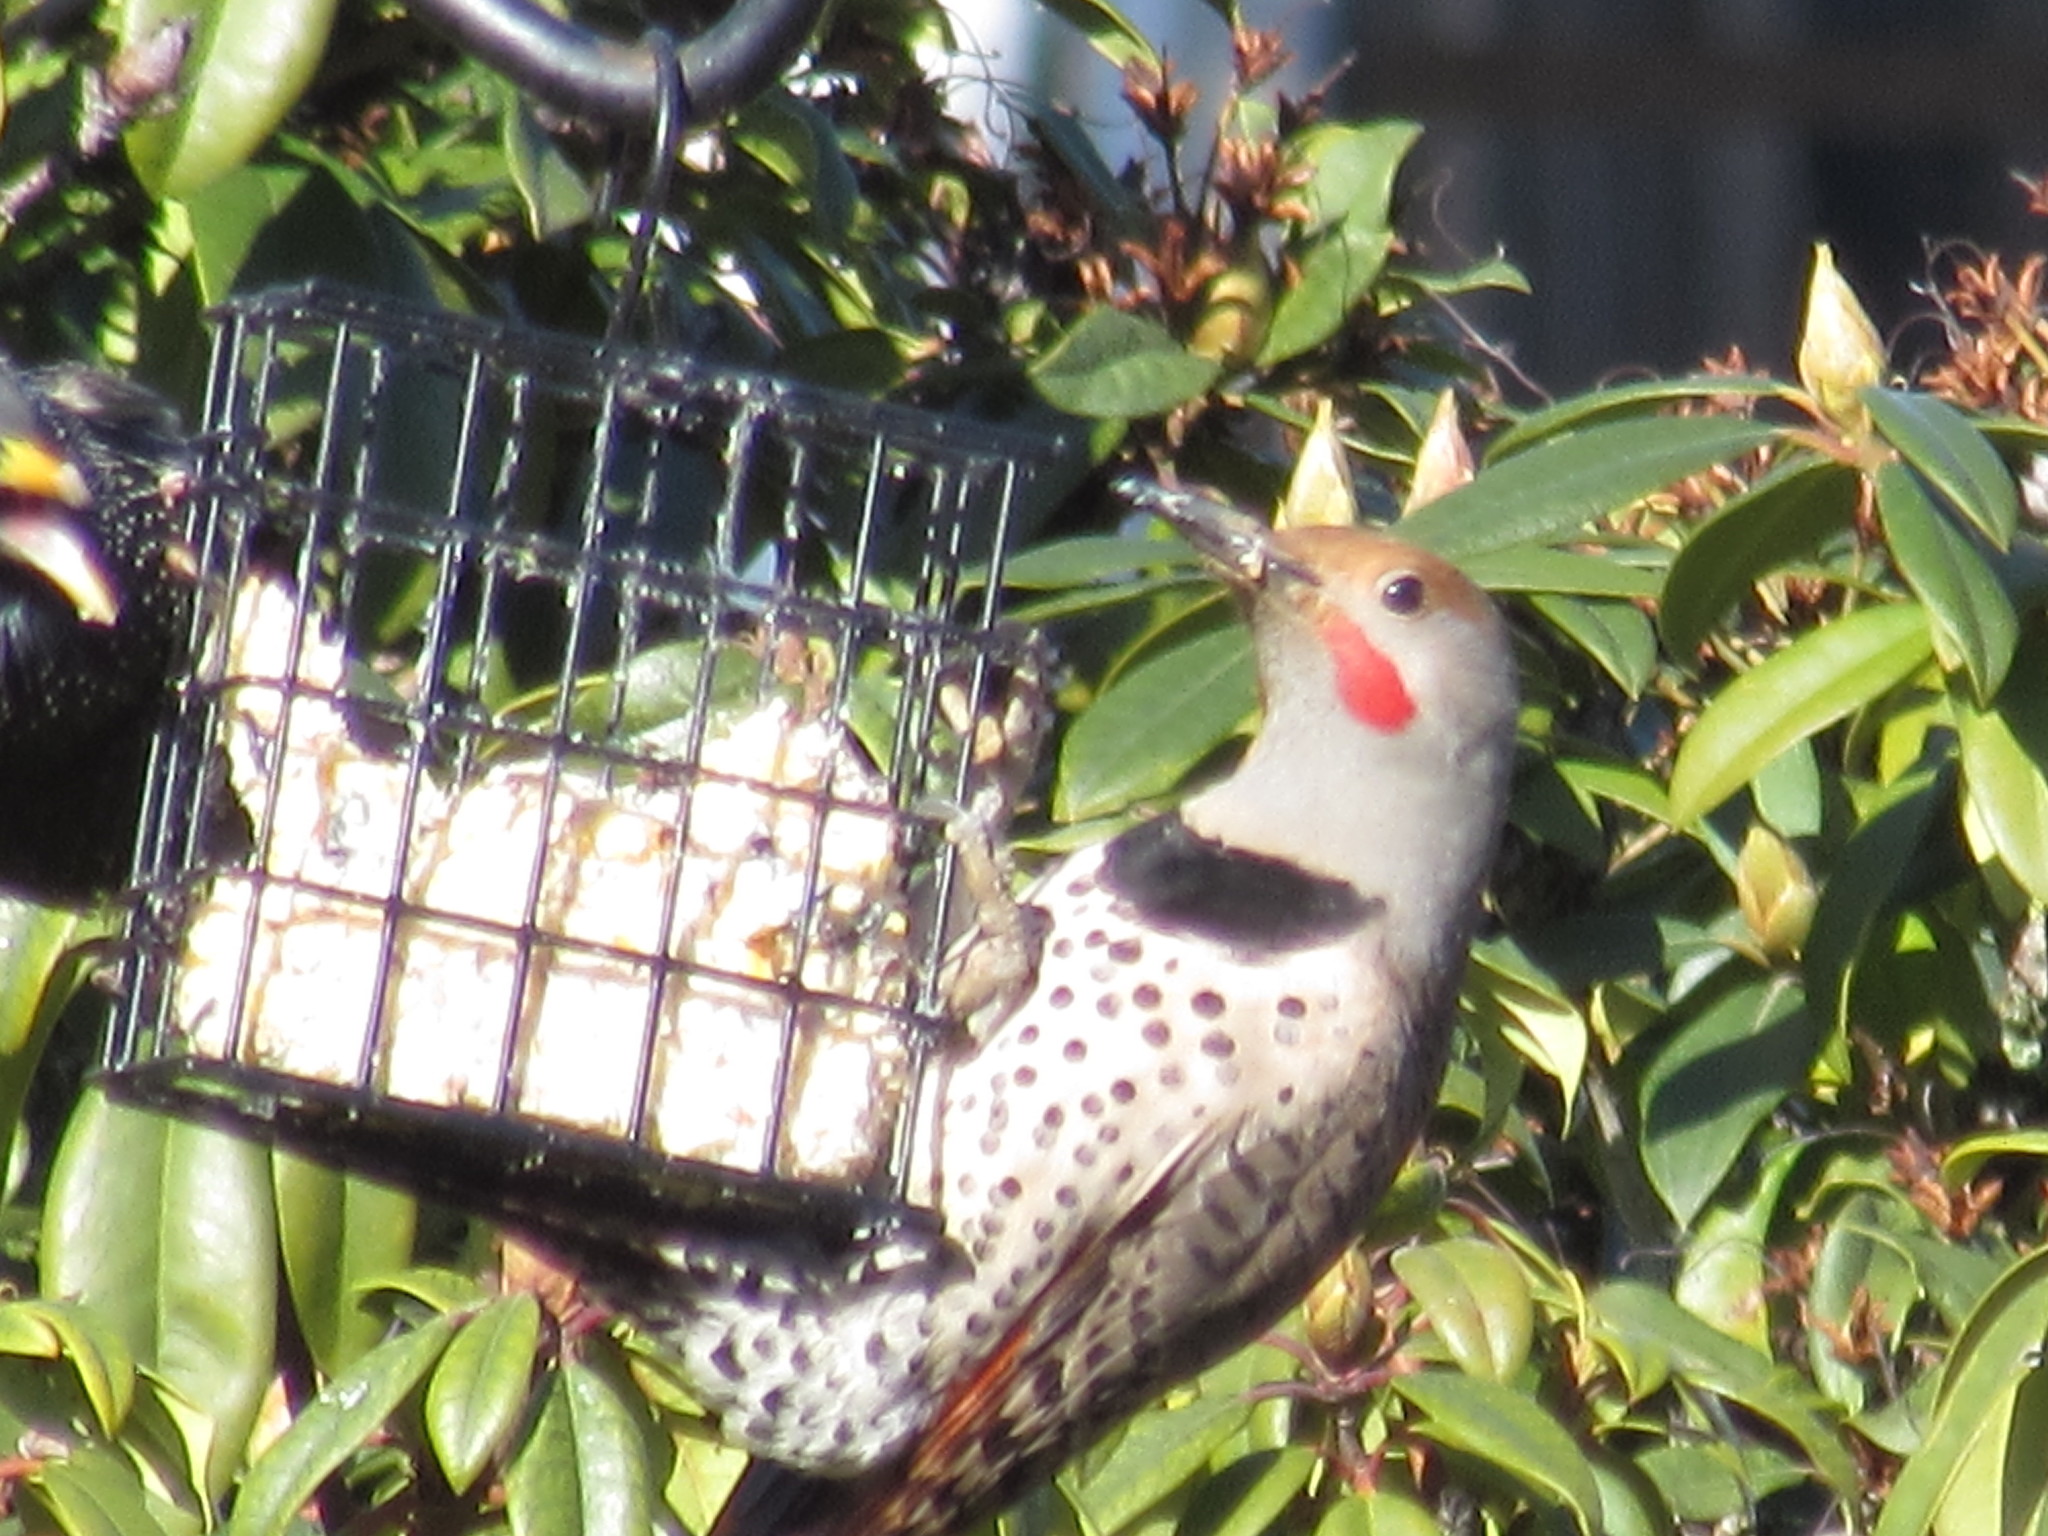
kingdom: Animalia
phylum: Chordata
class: Aves
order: Piciformes
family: Picidae
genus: Colaptes
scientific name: Colaptes auratus
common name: Northern flicker
